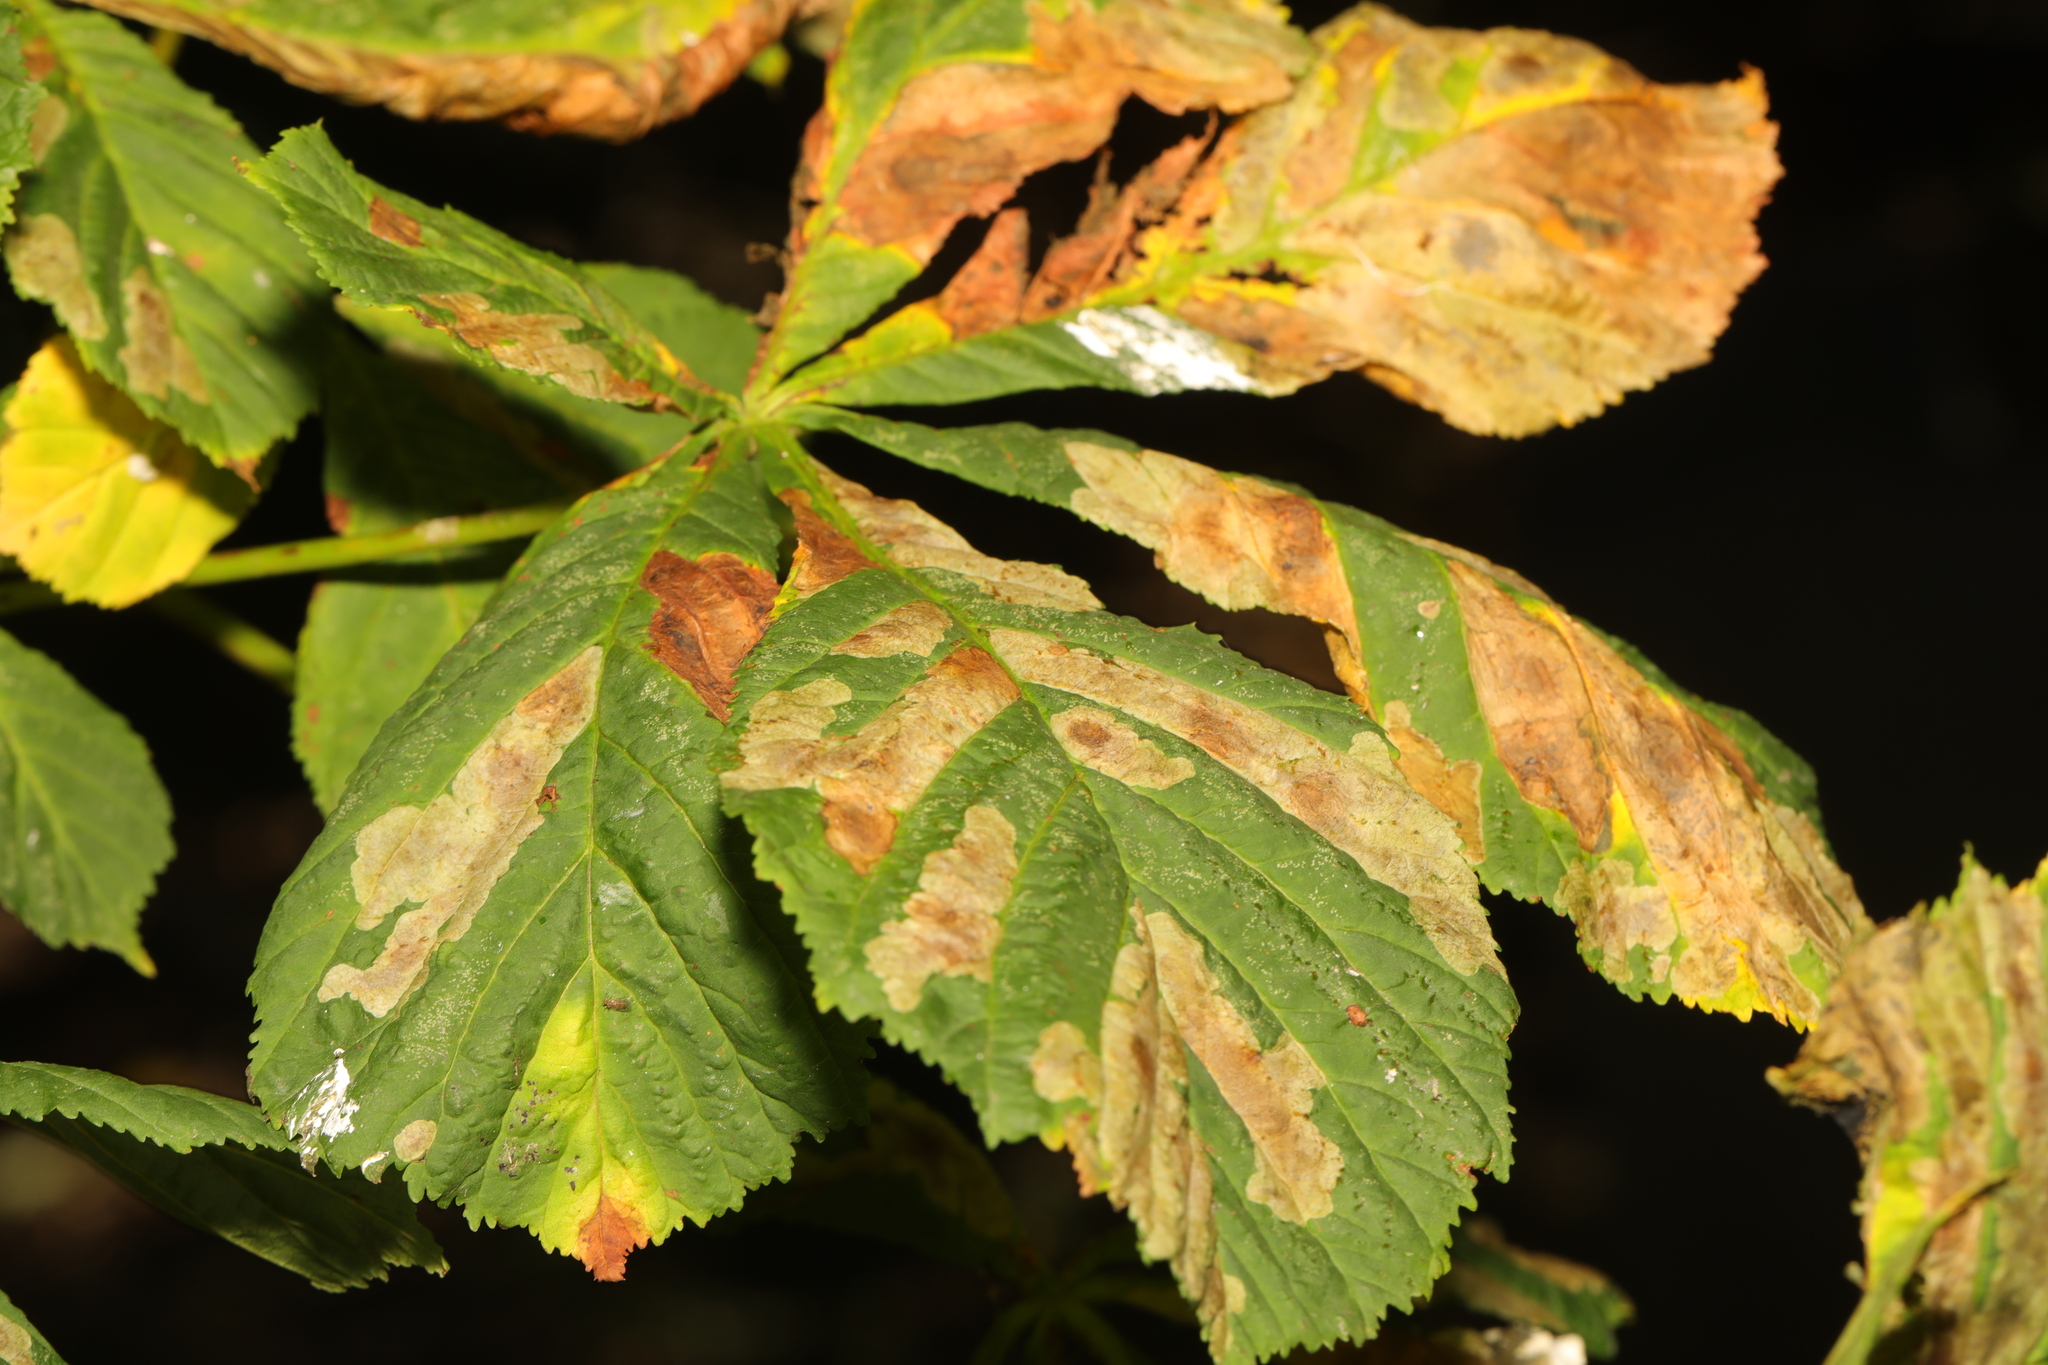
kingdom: Plantae
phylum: Tracheophyta
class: Magnoliopsida
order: Sapindales
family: Sapindaceae
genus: Aesculus
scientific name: Aesculus hippocastanum
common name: Horse-chestnut
